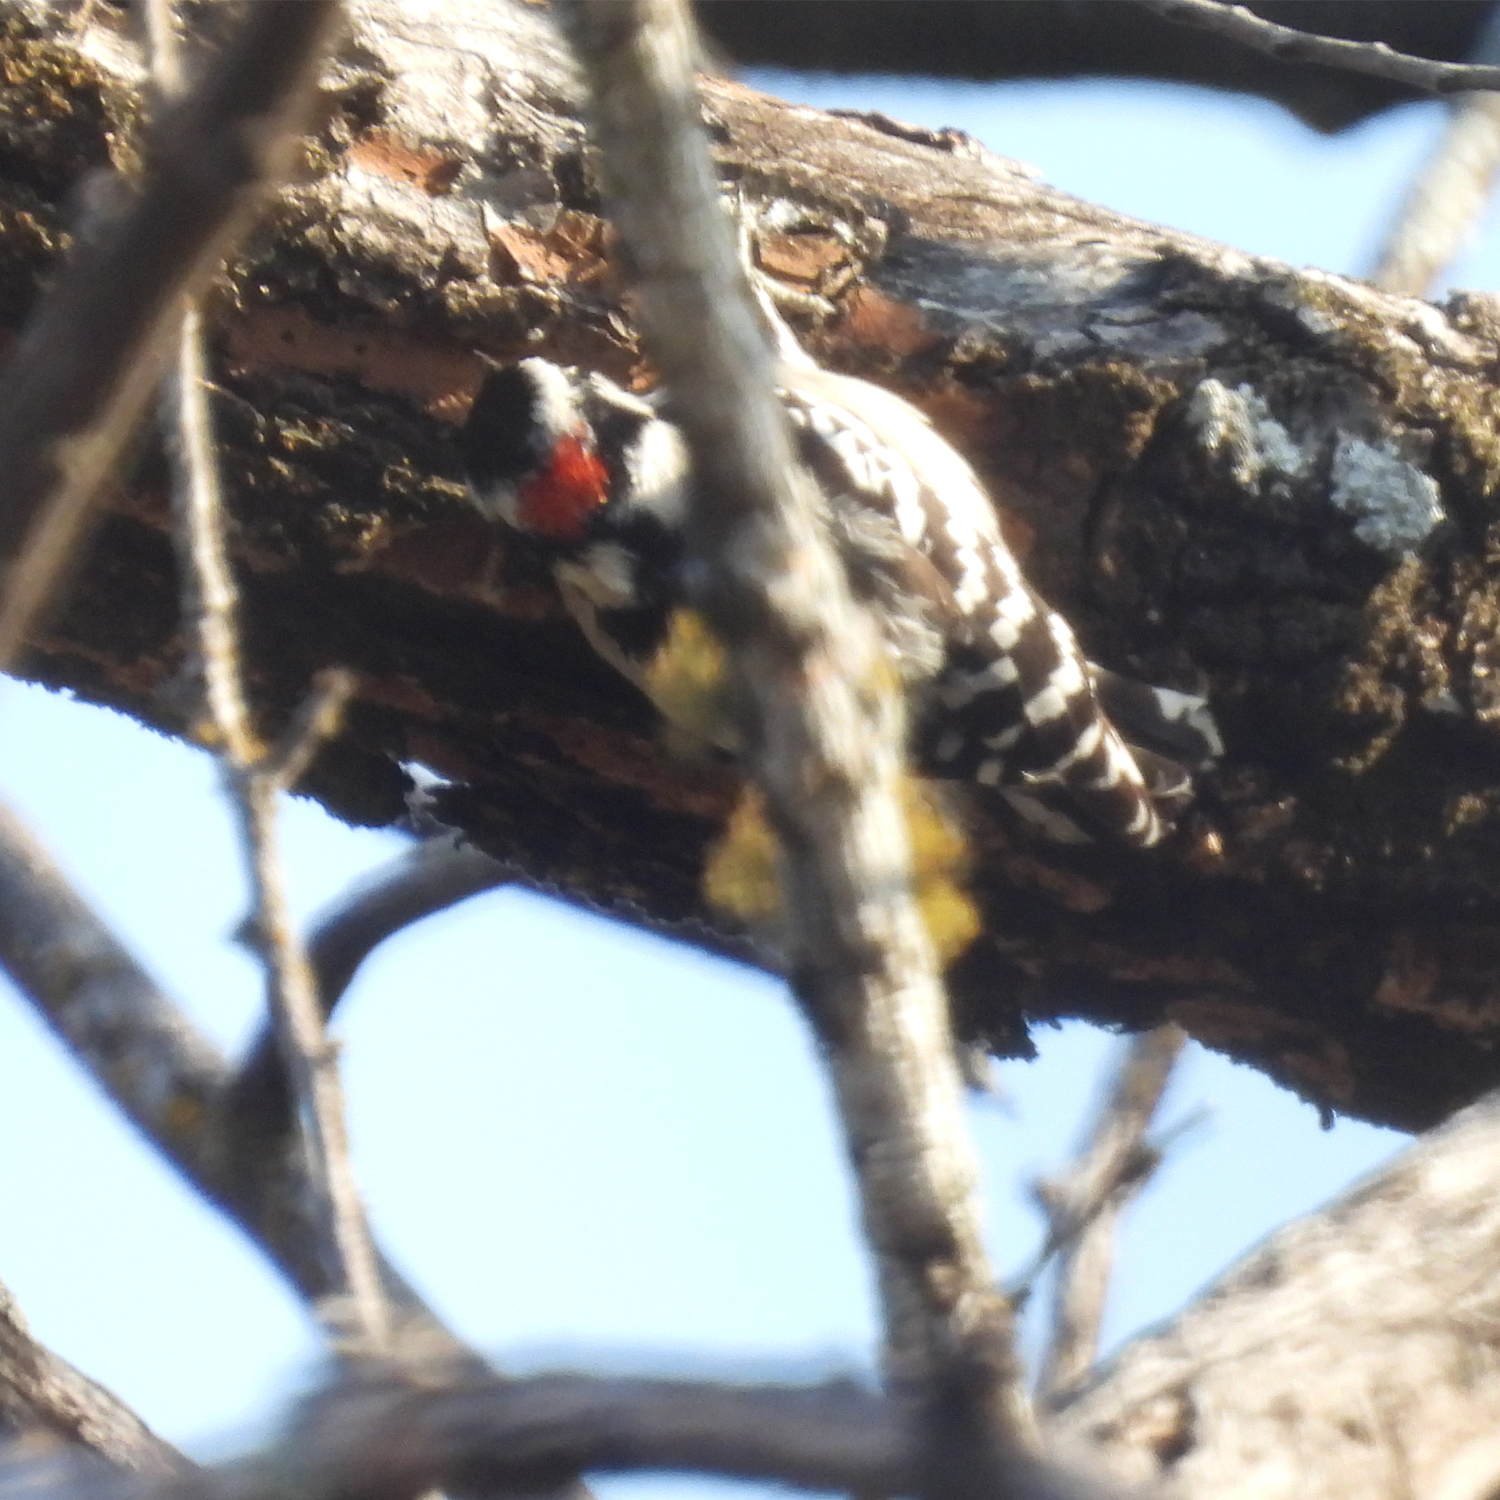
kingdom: Animalia
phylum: Chordata
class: Aves
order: Piciformes
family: Picidae
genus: Dryobates
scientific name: Dryobates pubescens
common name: Downy woodpecker
